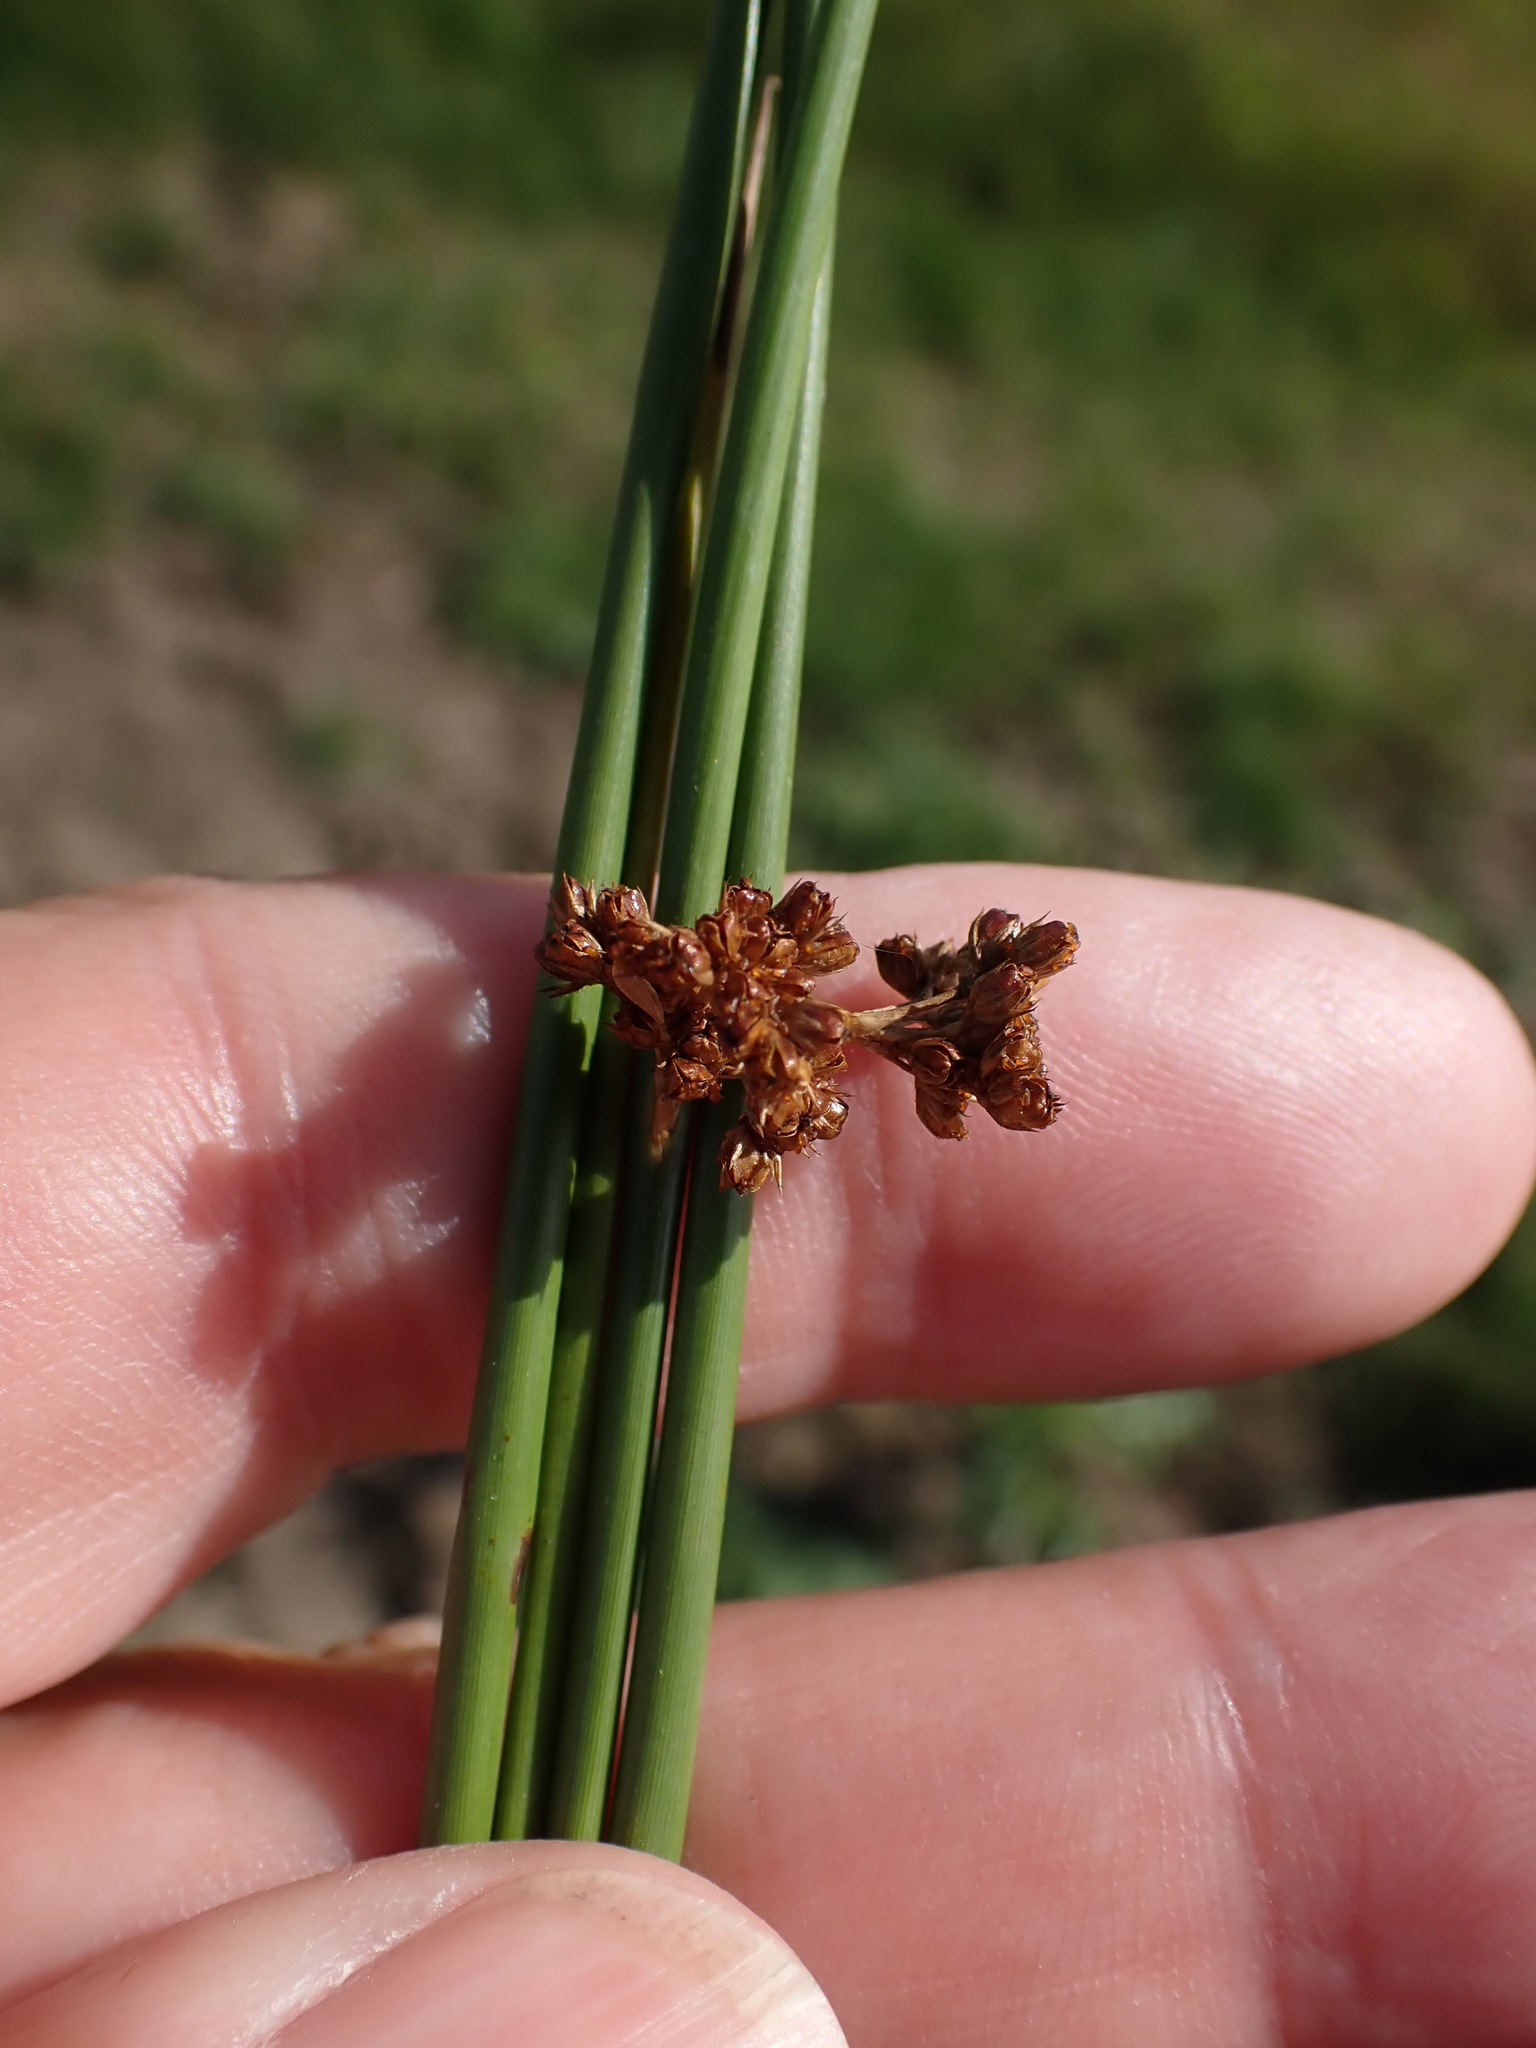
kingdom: Plantae
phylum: Tracheophyta
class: Liliopsida
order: Poales
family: Juncaceae
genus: Juncus
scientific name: Juncus effusus
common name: Soft rush
